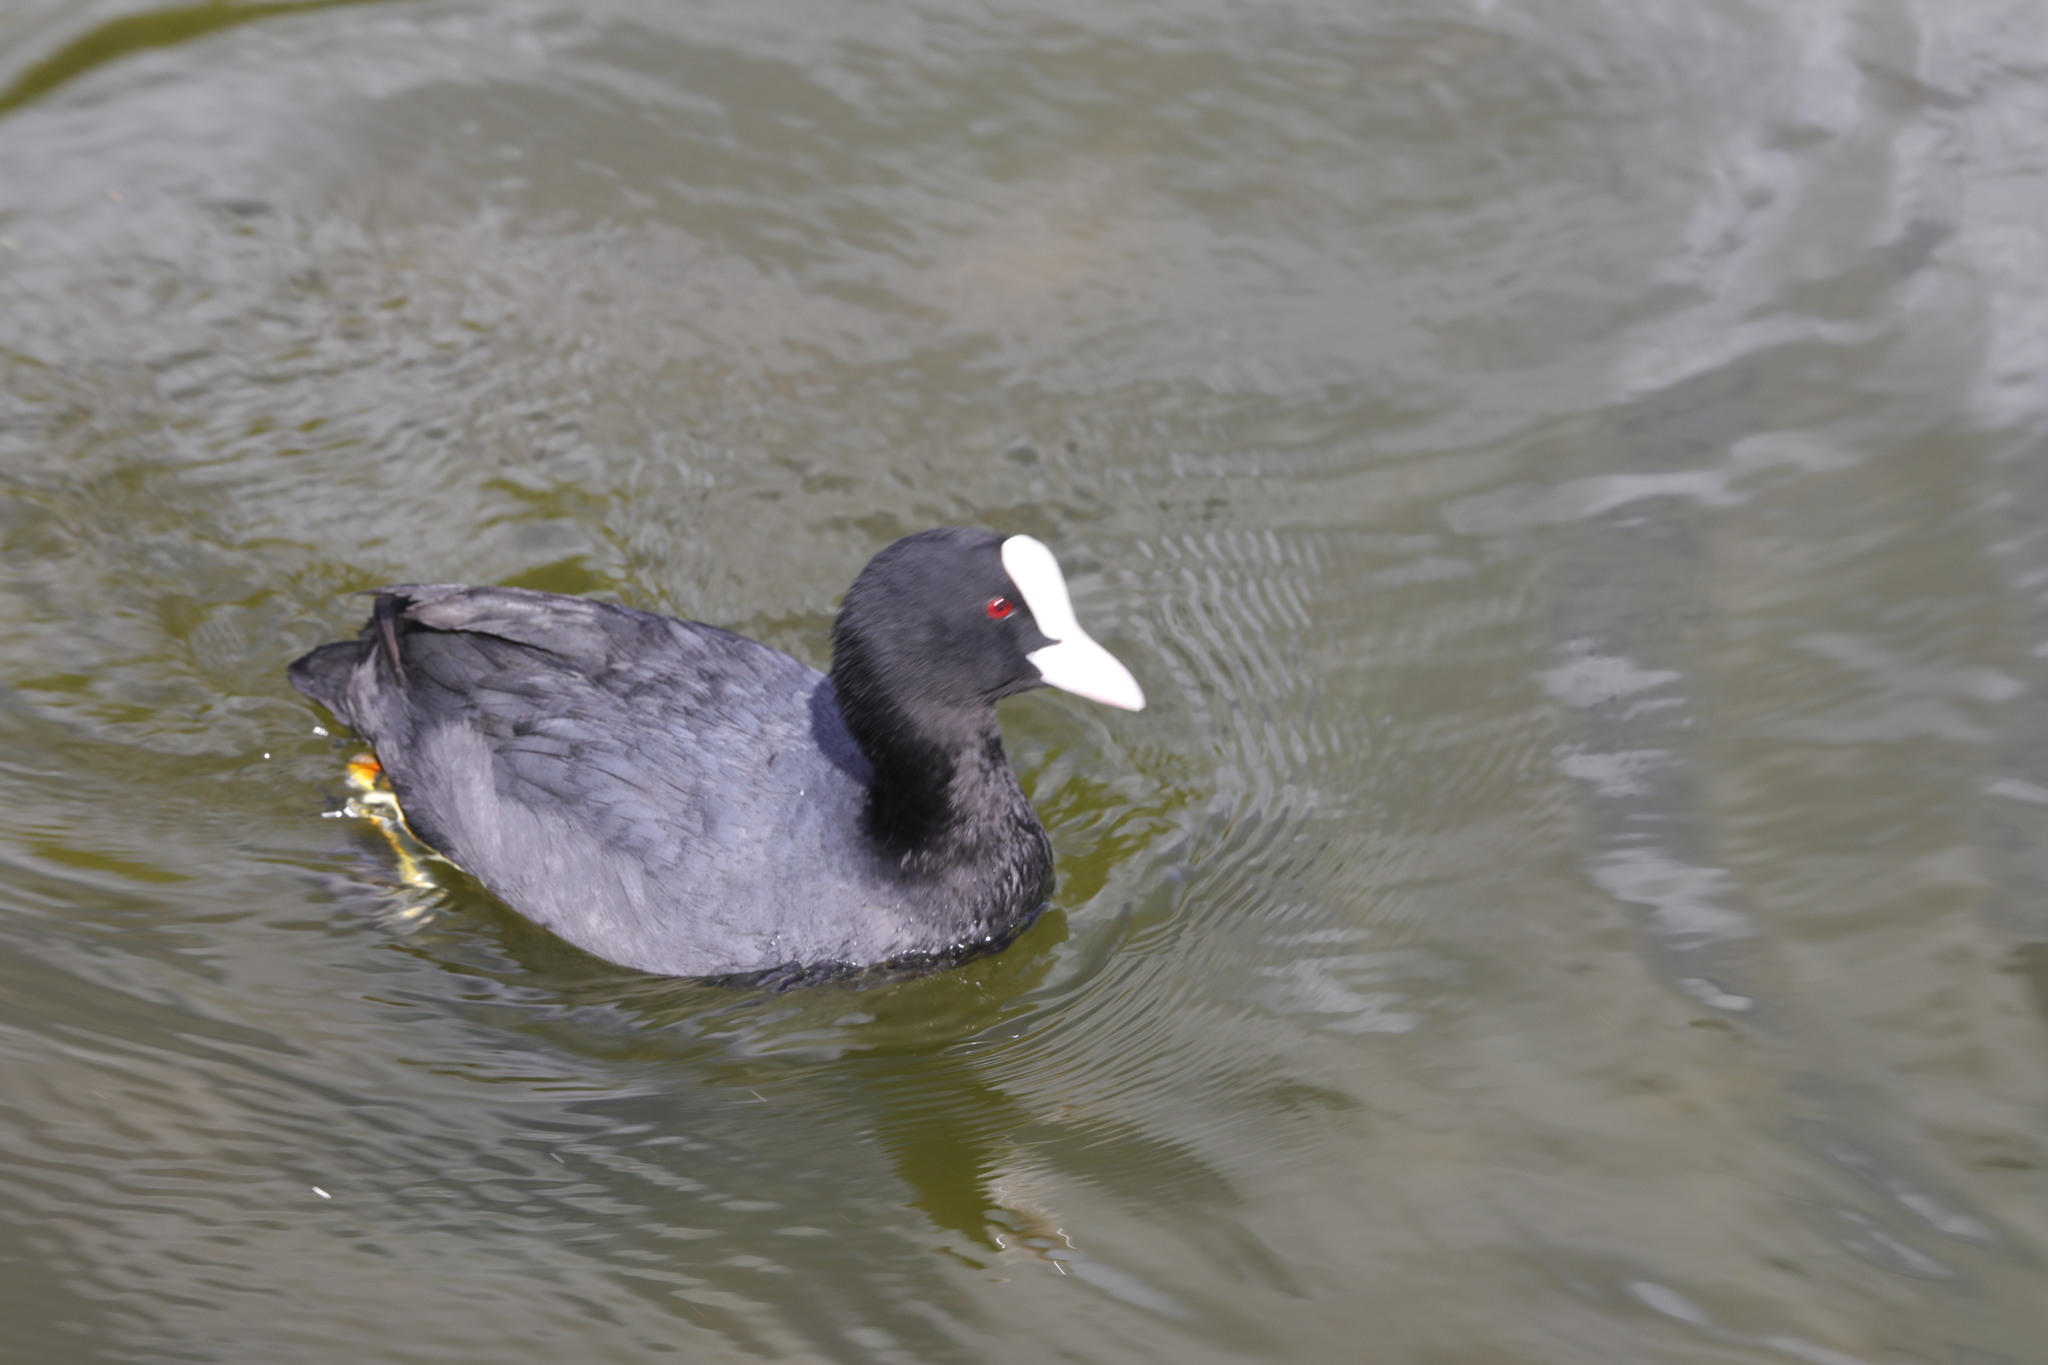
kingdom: Animalia
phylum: Chordata
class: Aves
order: Gruiformes
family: Rallidae
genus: Fulica
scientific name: Fulica atra
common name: Eurasian coot
